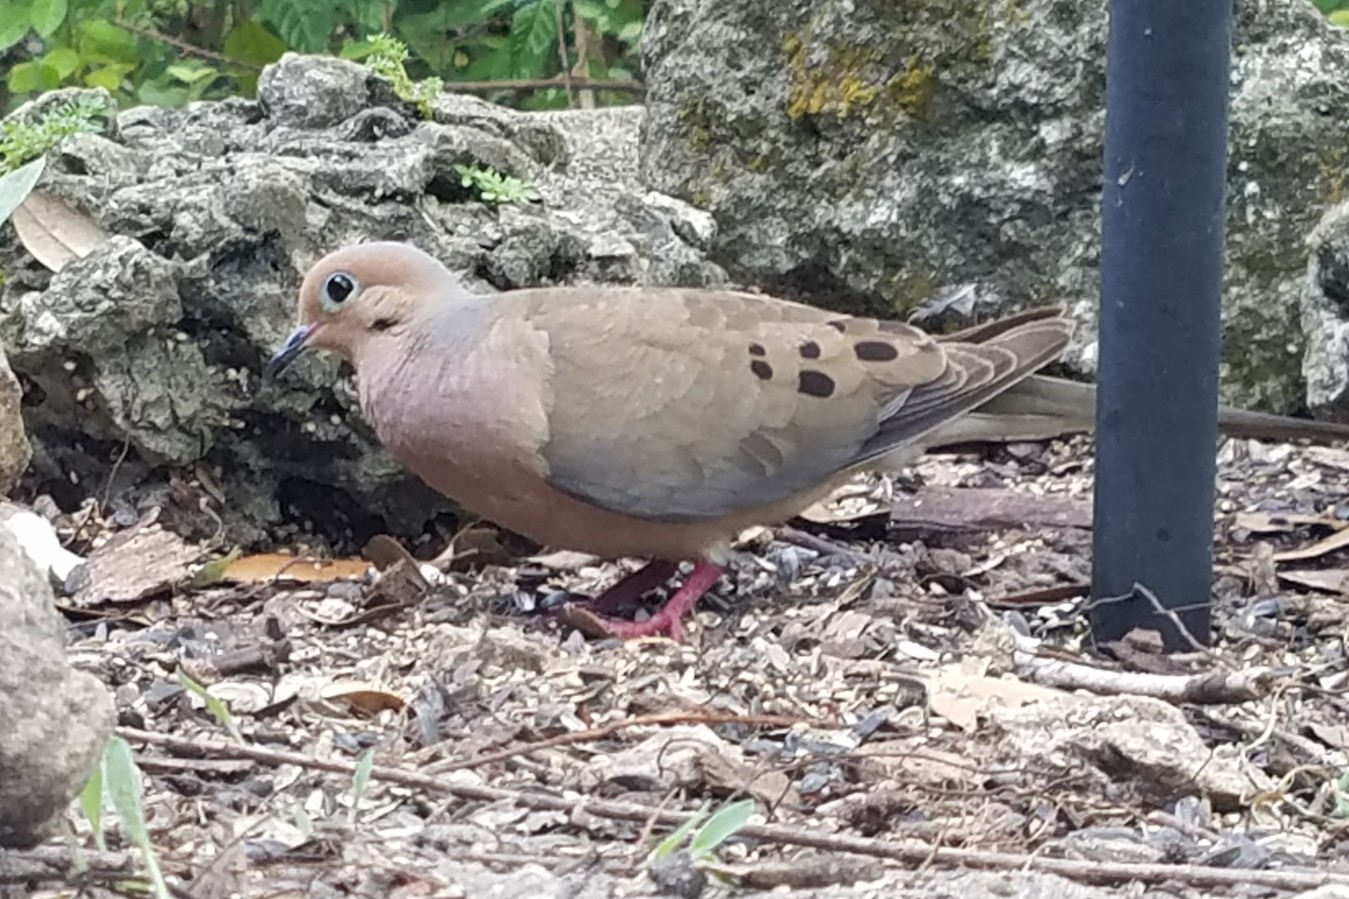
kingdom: Animalia
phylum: Chordata
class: Aves
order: Columbiformes
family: Columbidae
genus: Zenaida
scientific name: Zenaida macroura
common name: Mourning dove
